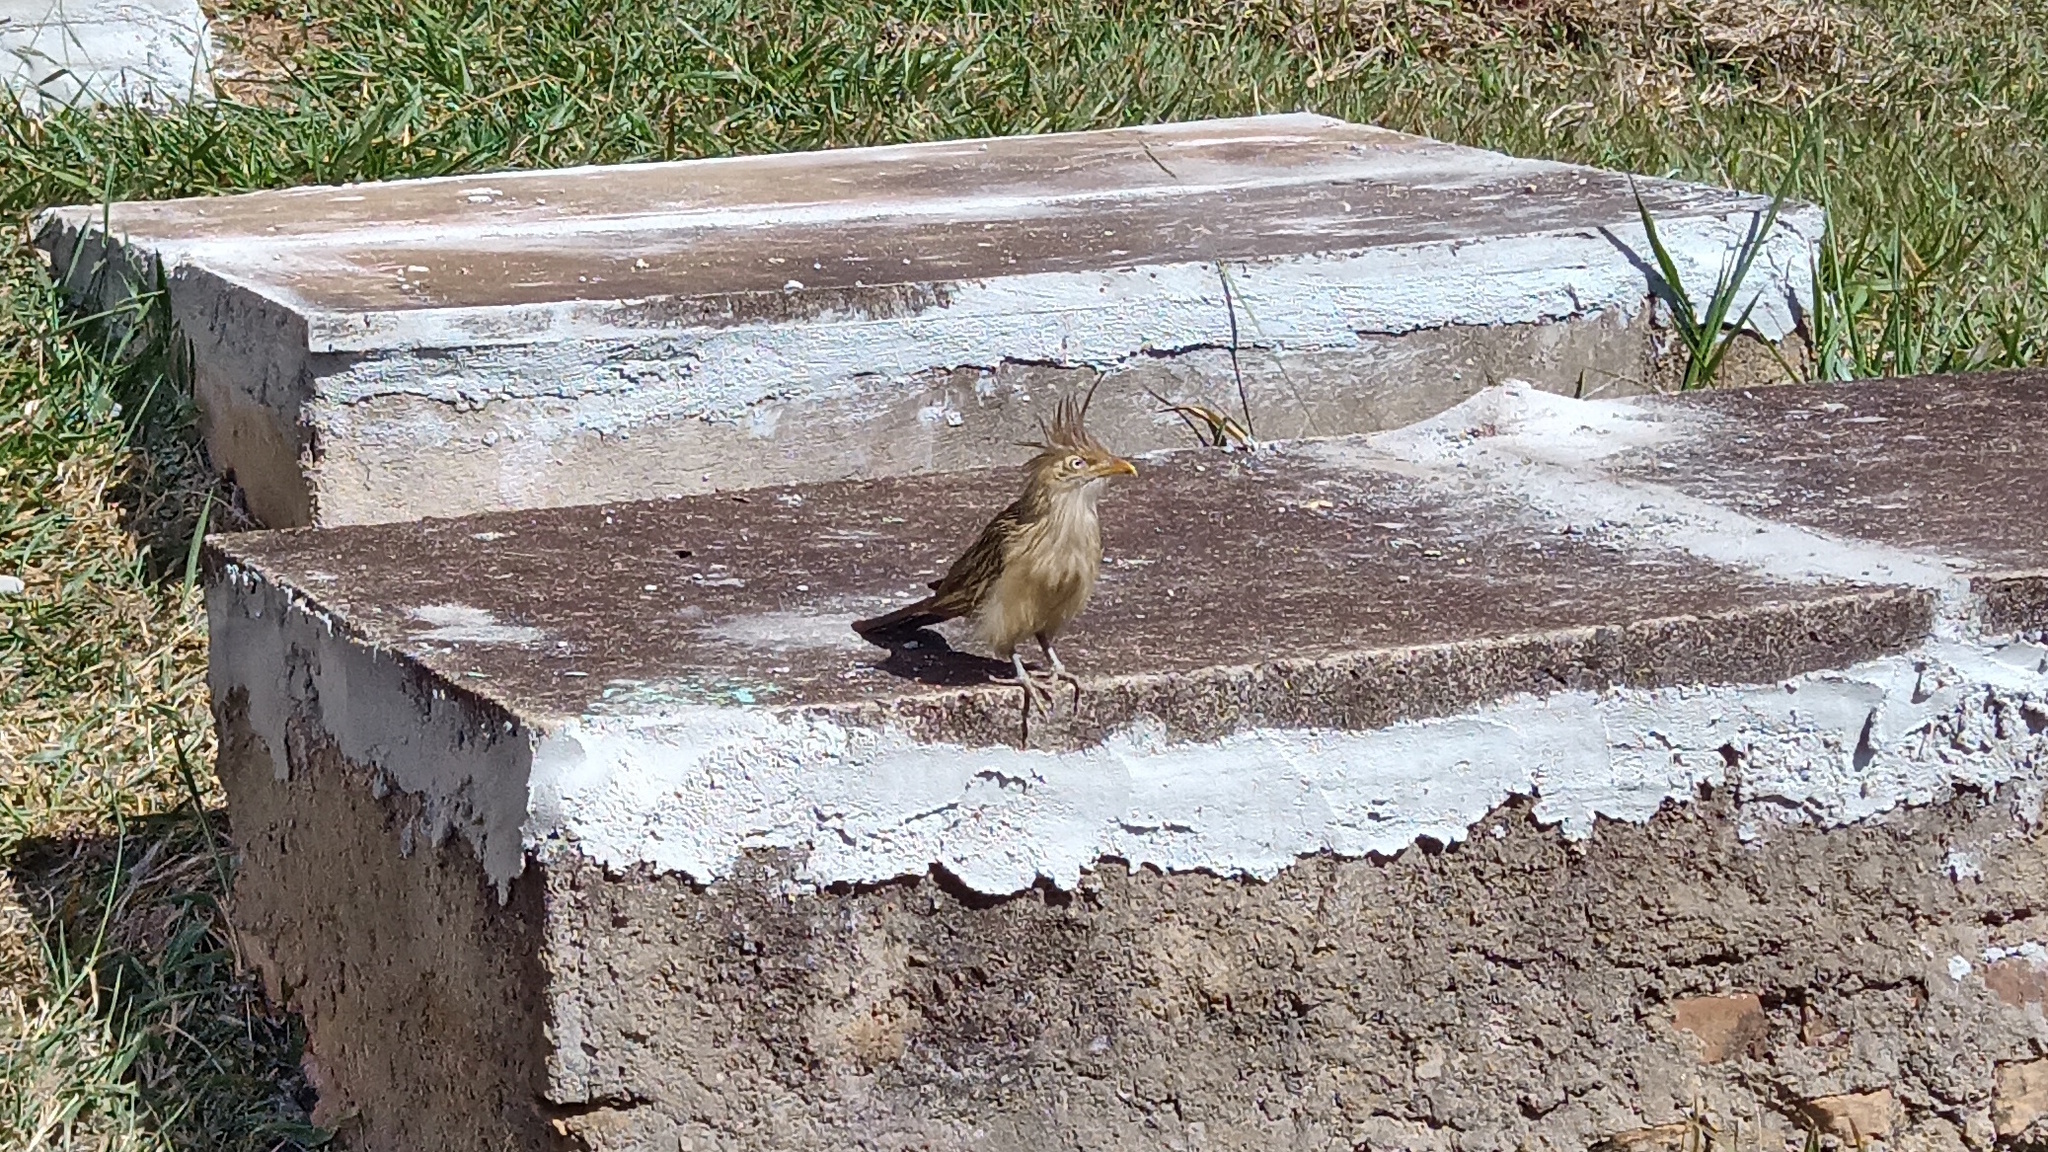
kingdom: Animalia
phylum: Chordata
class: Aves
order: Cuculiformes
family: Cuculidae
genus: Guira
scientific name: Guira guira
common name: Guira cuckoo
